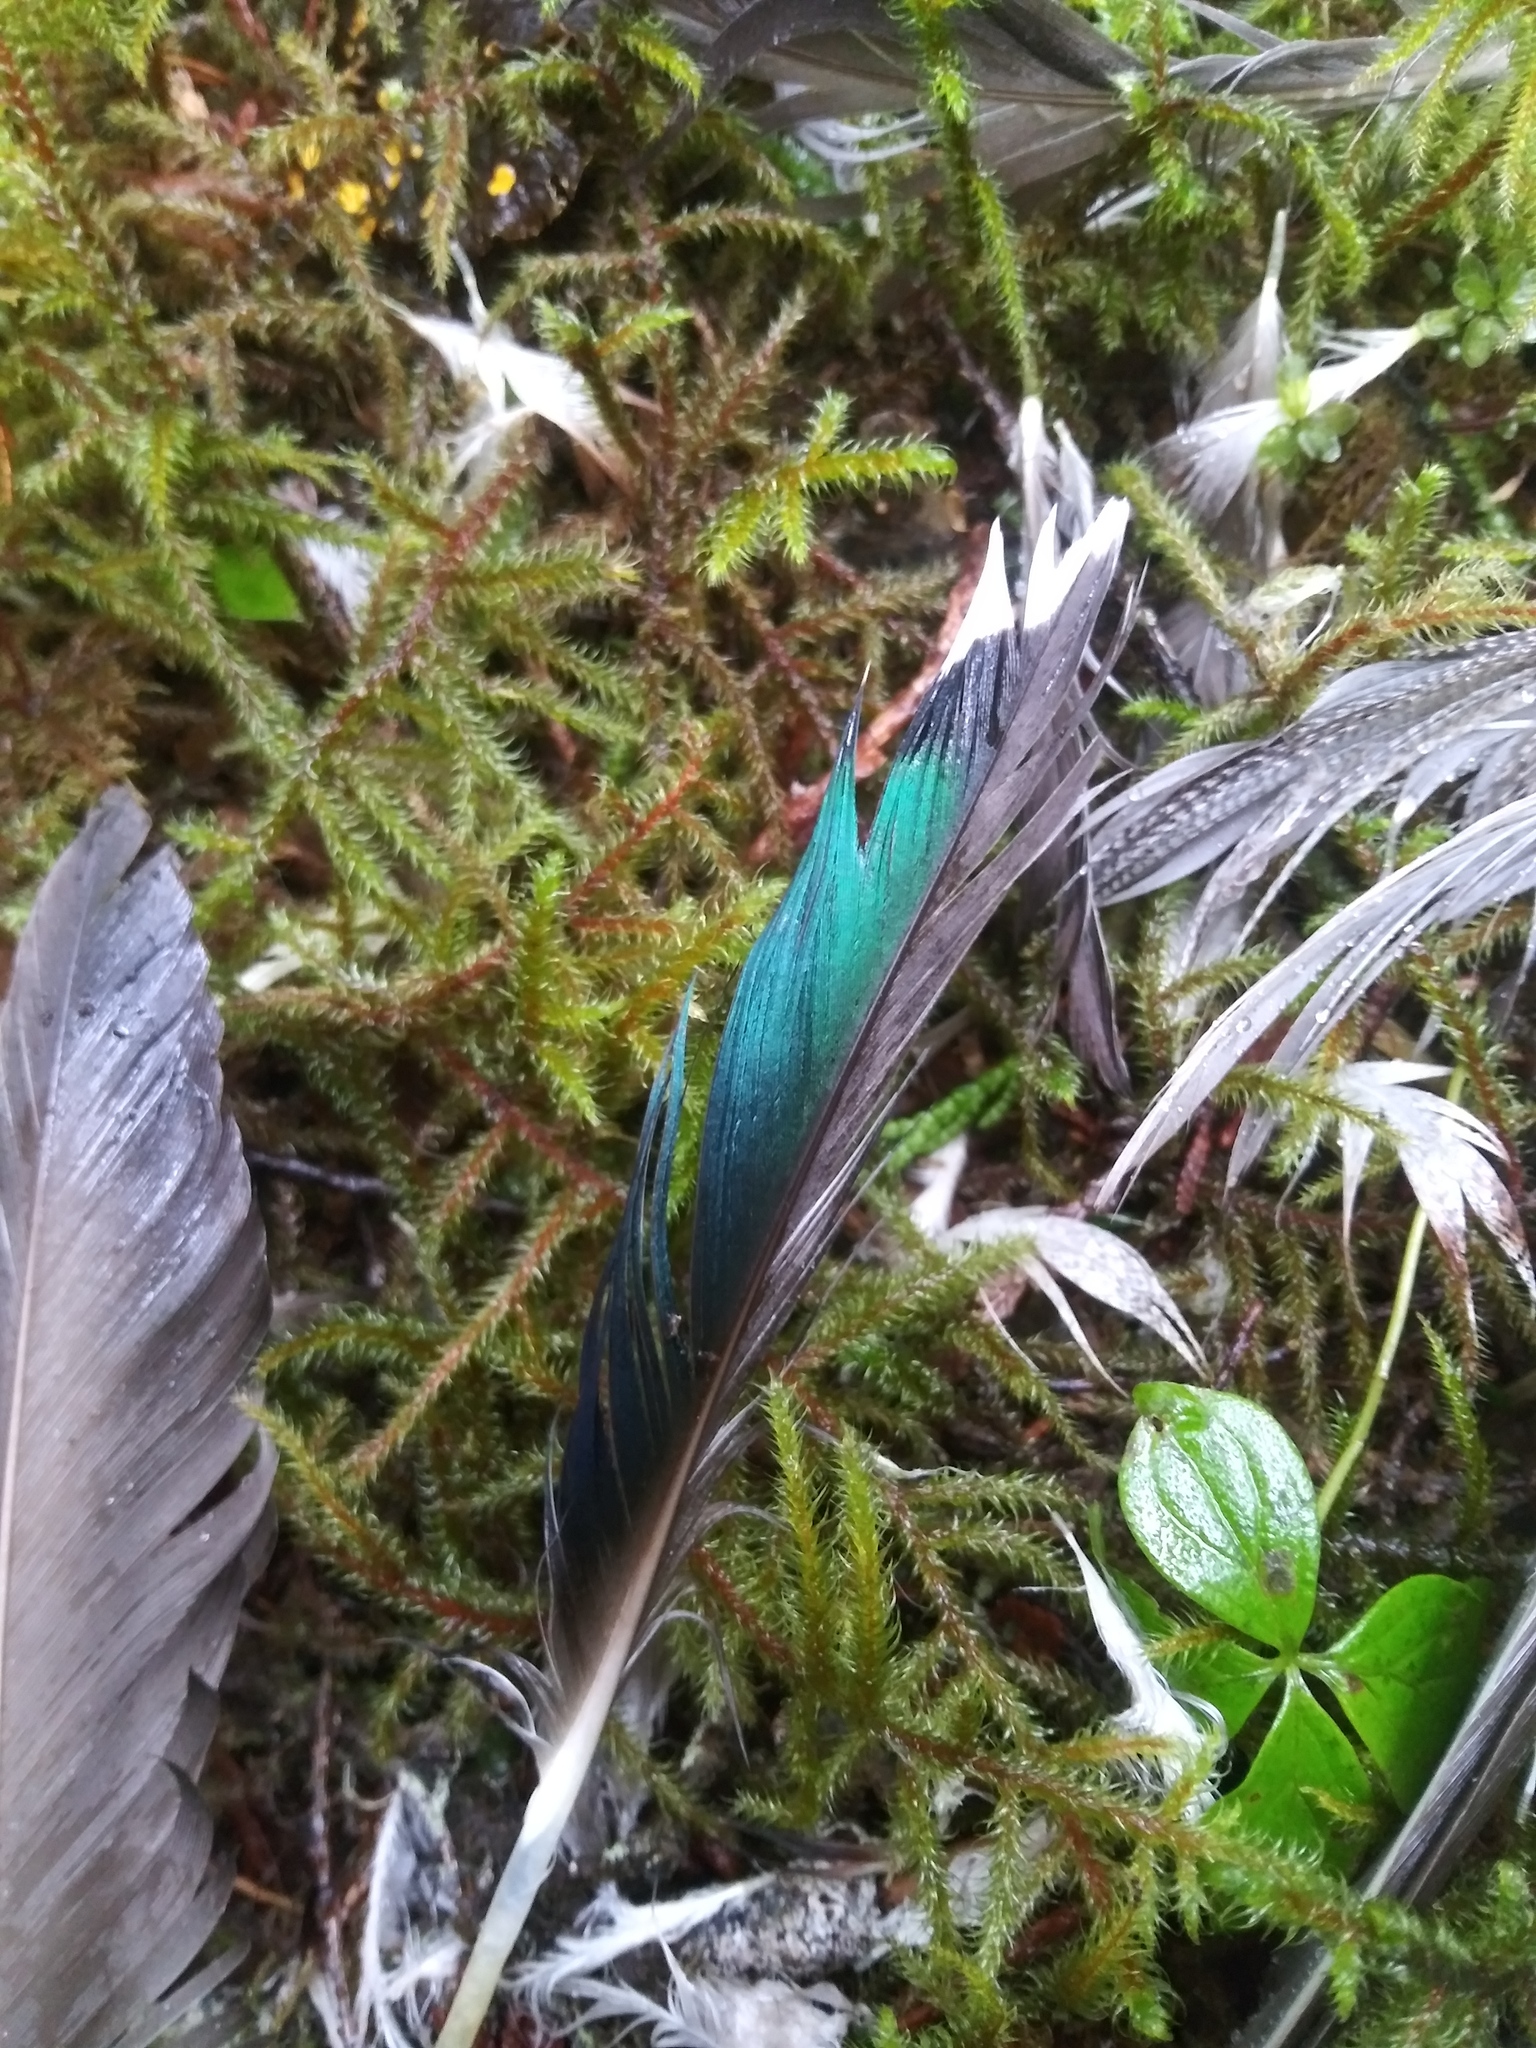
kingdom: Animalia
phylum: Chordata
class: Aves
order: Anseriformes
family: Anatidae
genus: Anas
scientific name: Anas platyrhynchos
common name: Mallard
